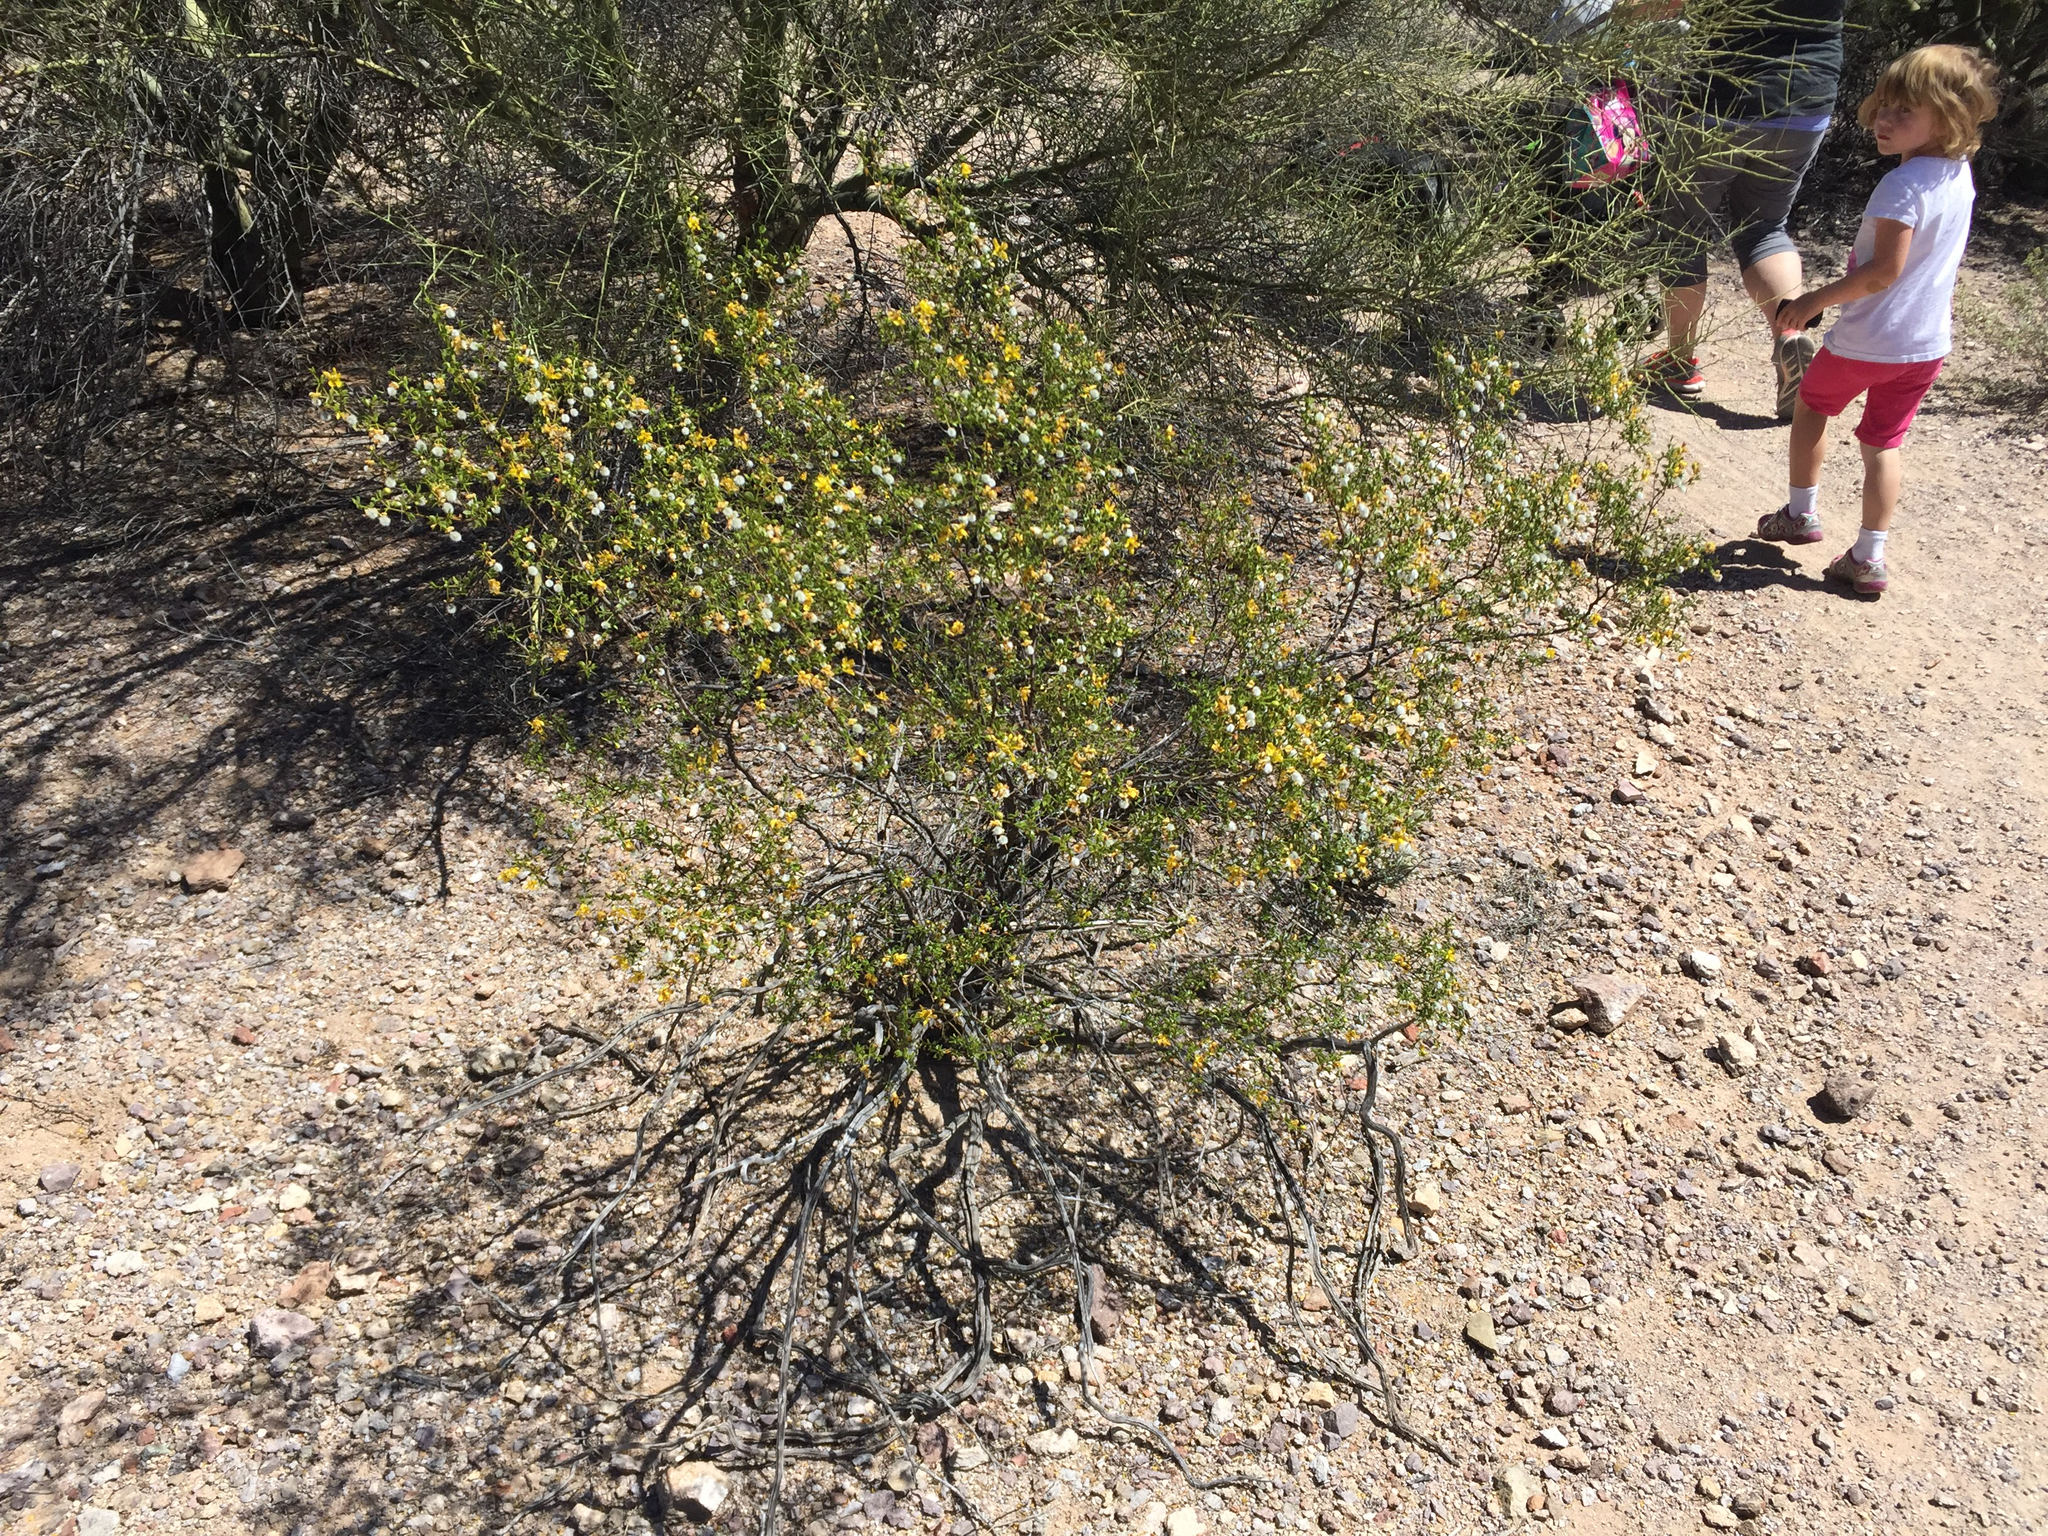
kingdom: Plantae
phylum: Tracheophyta
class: Magnoliopsida
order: Zygophyllales
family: Zygophyllaceae
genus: Larrea
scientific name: Larrea tridentata
